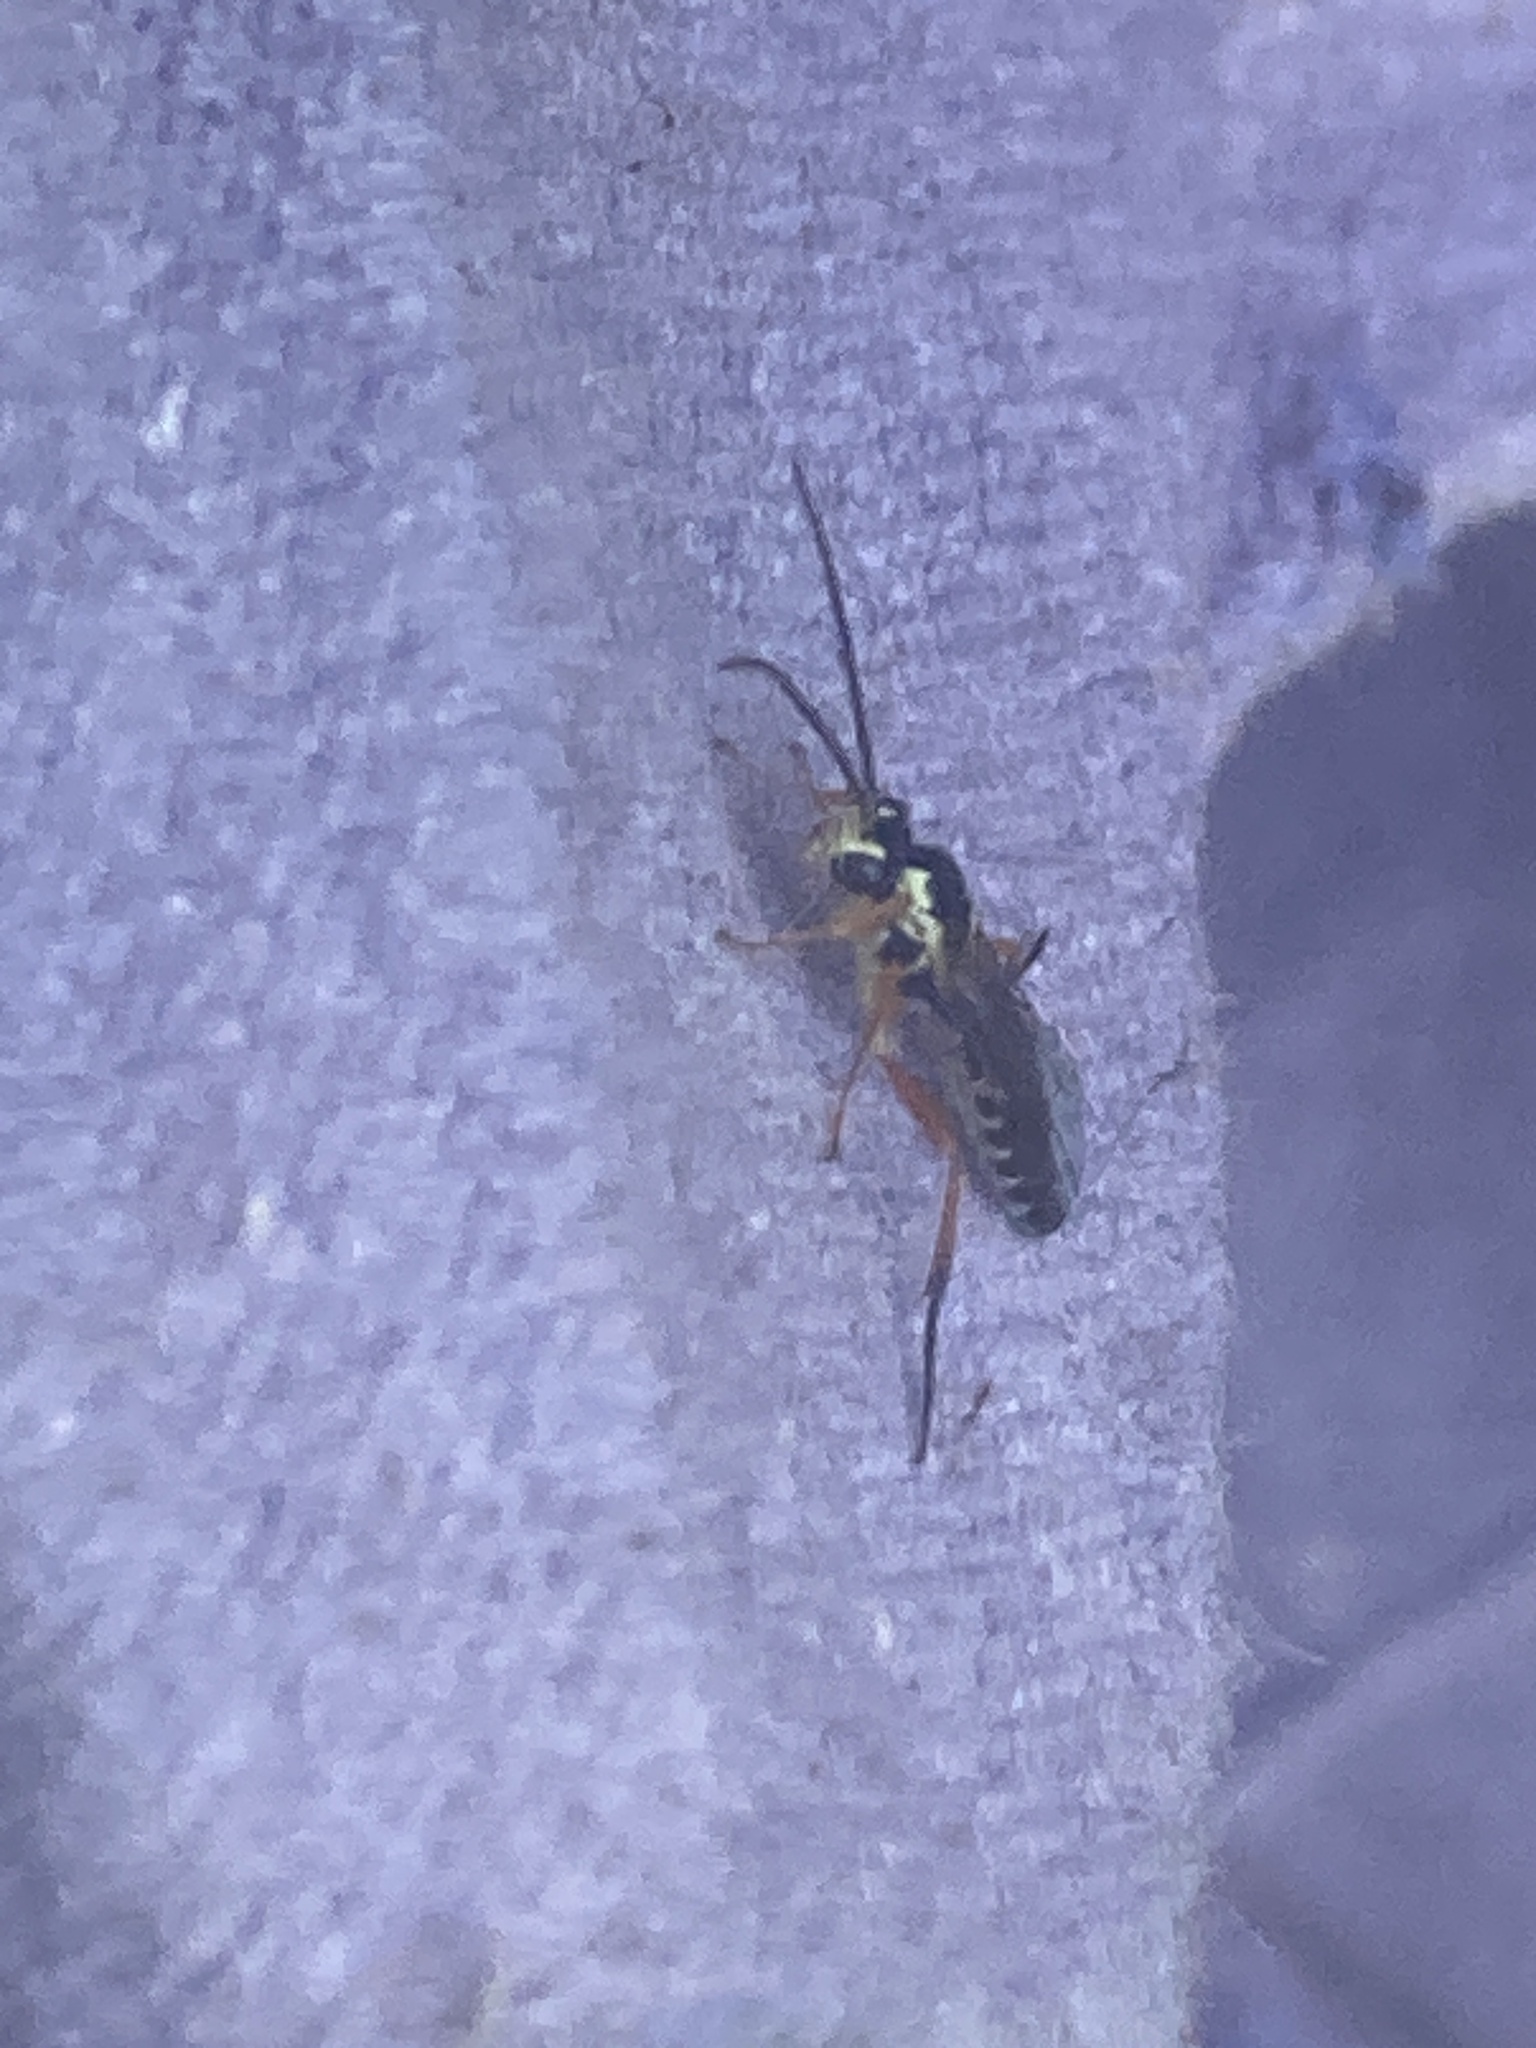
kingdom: Animalia
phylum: Arthropoda
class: Insecta
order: Hymenoptera
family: Ichneumonidae
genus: Syrphoctonus
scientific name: Syrphoctonus tarsatorius
